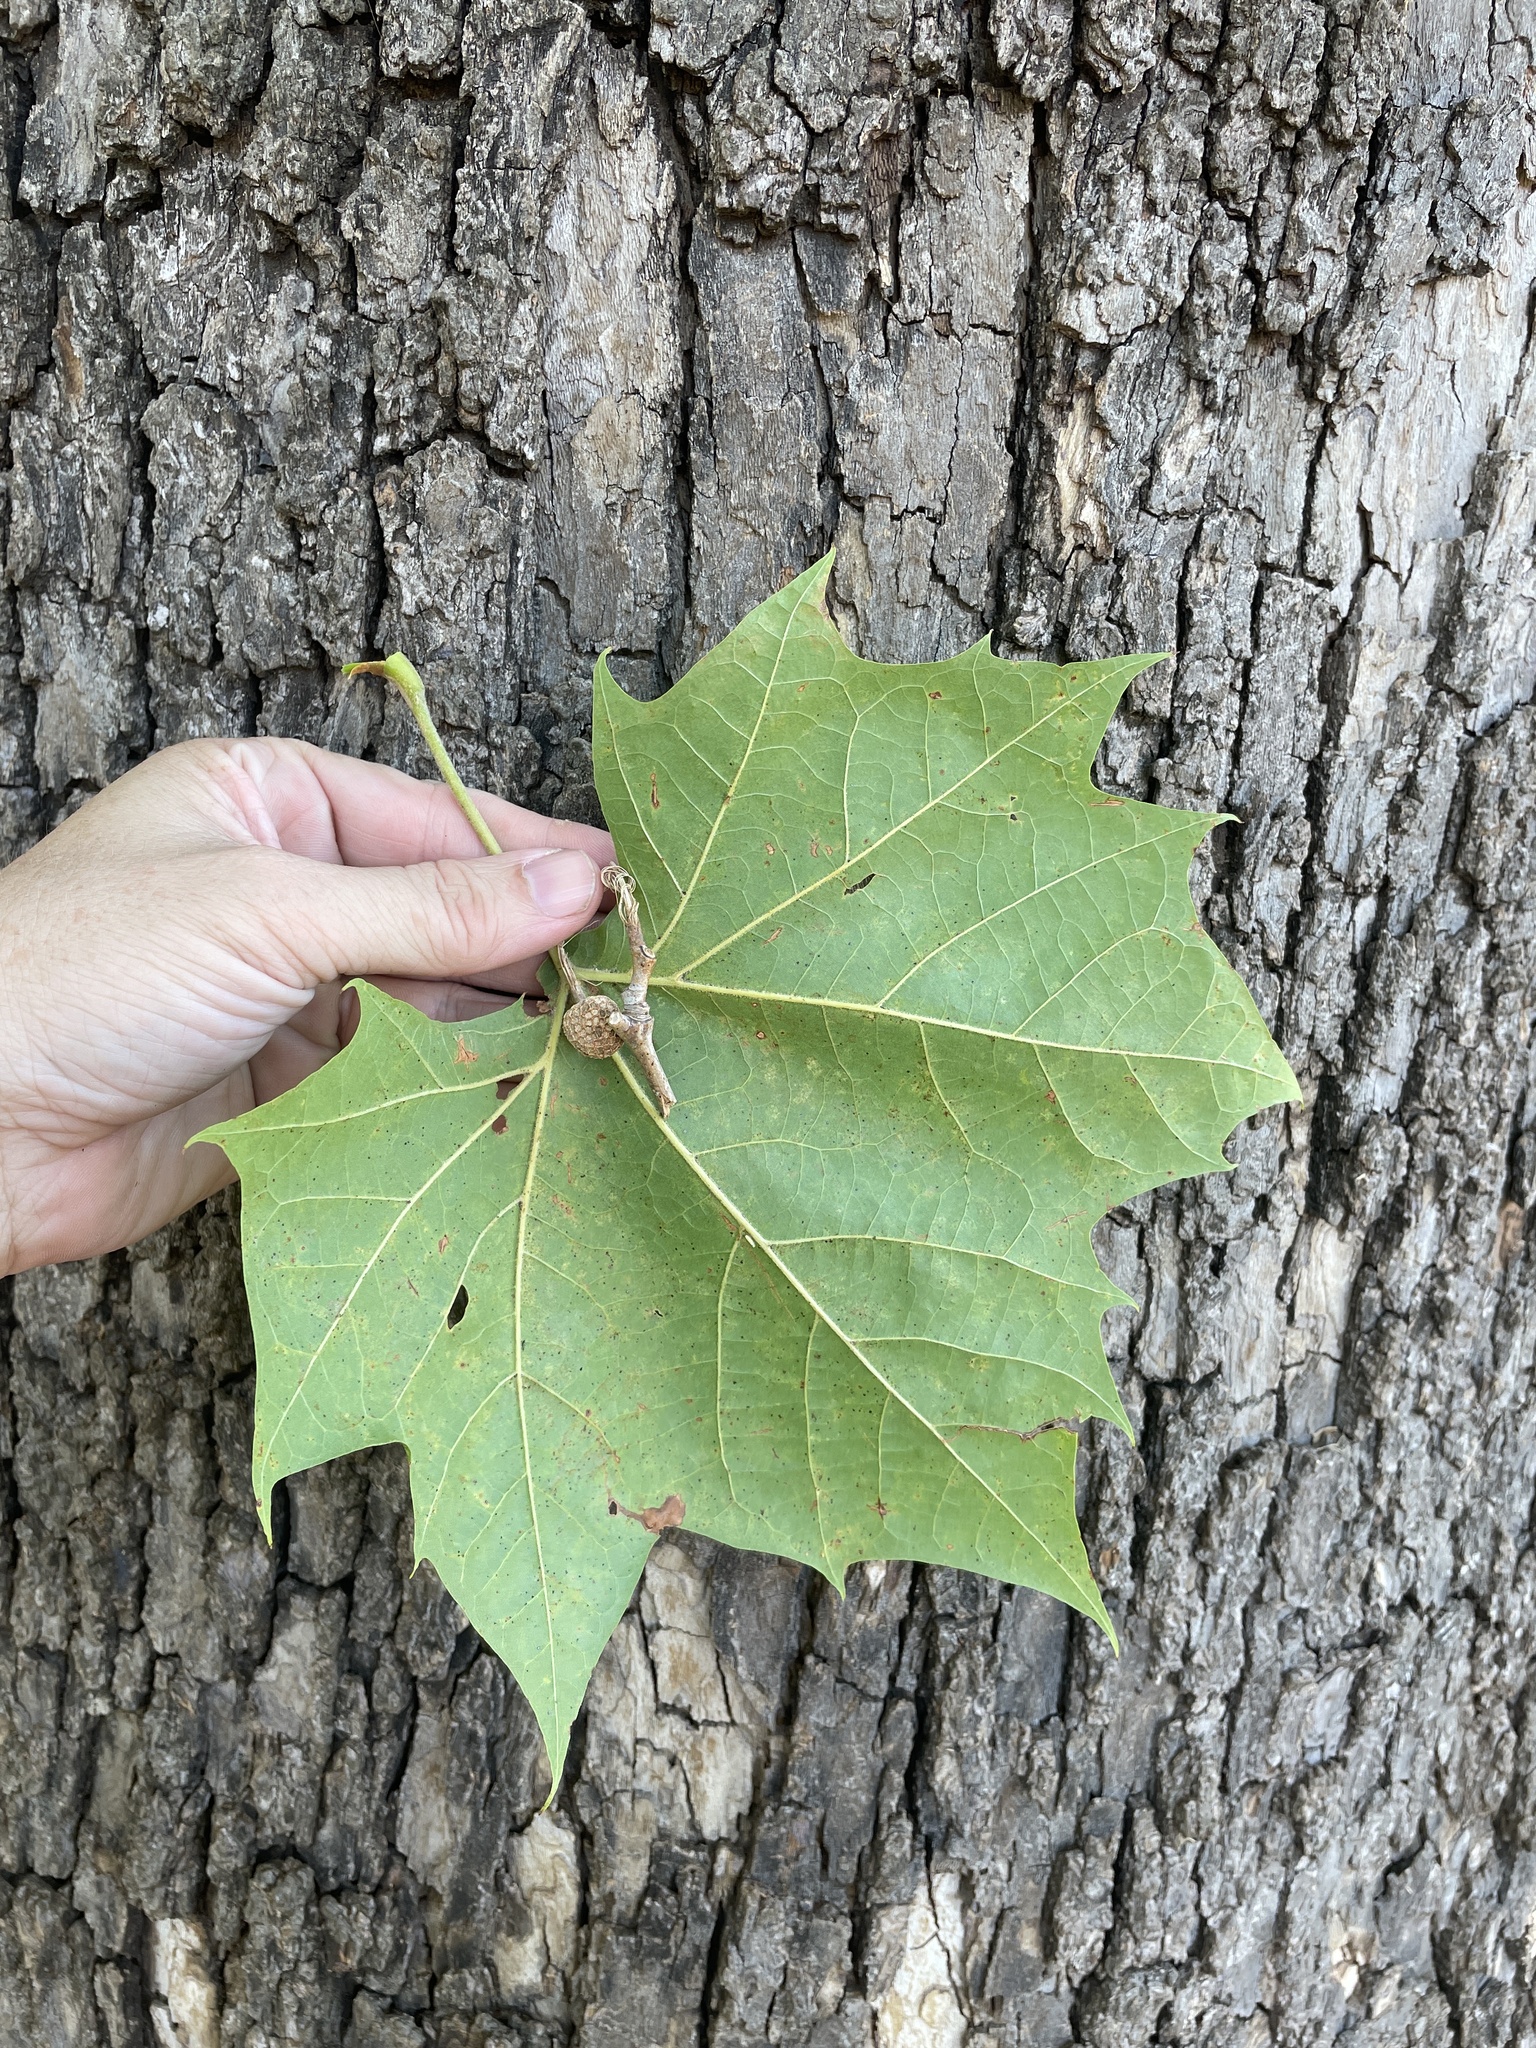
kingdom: Plantae
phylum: Tracheophyta
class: Magnoliopsida
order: Proteales
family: Platanaceae
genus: Platanus
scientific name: Platanus occidentalis
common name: American sycamore
